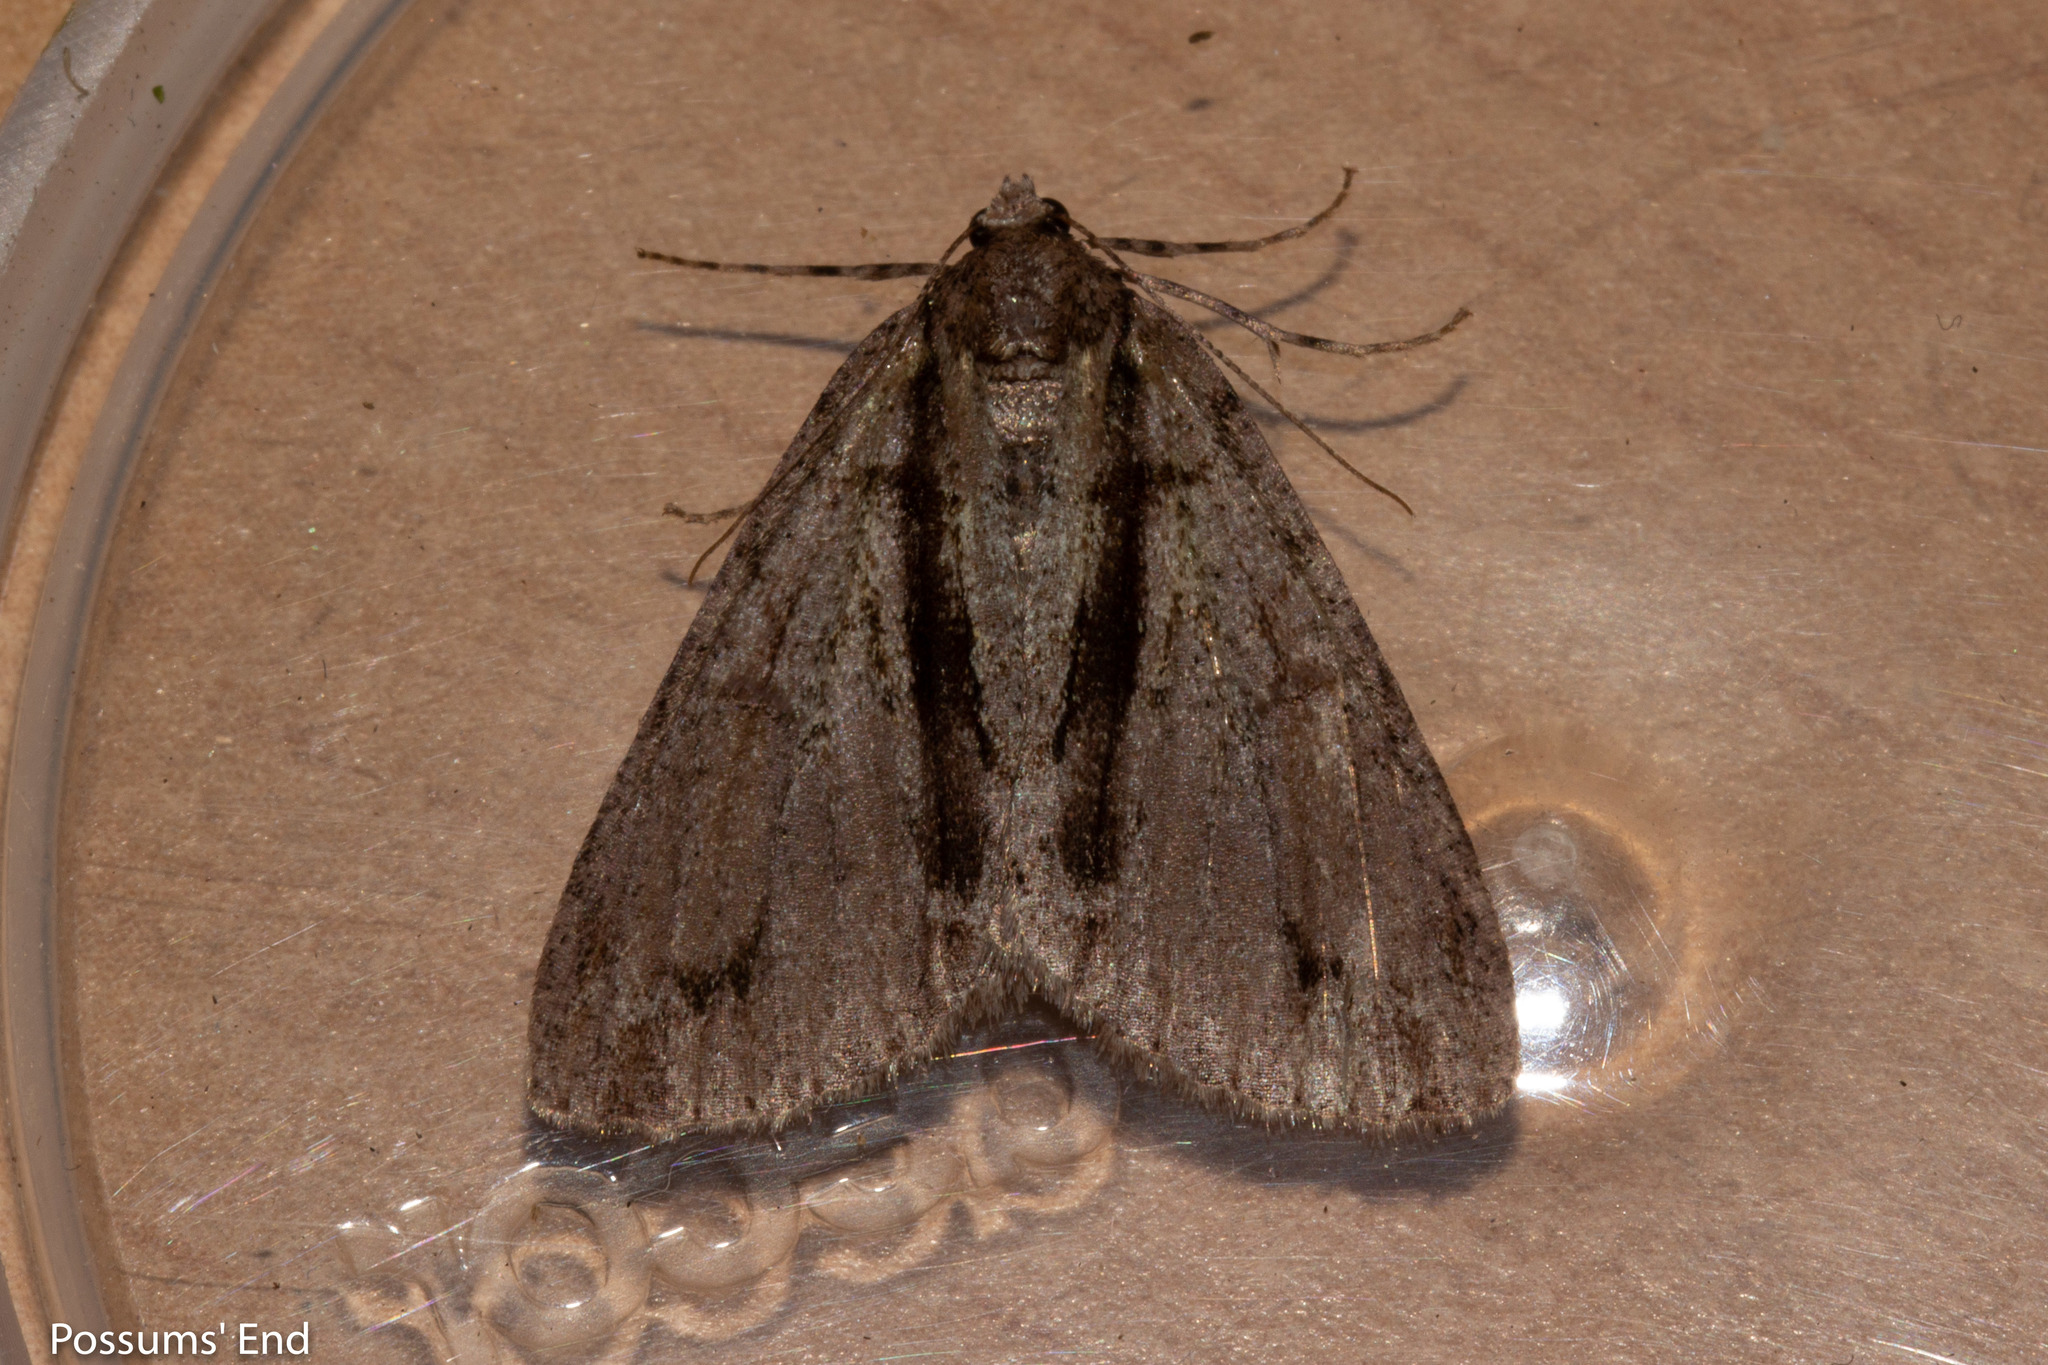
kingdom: Animalia
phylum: Arthropoda
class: Insecta
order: Lepidoptera
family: Geometridae
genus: Pseudocoremia
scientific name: Pseudocoremia suavis
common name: Common forest looper
